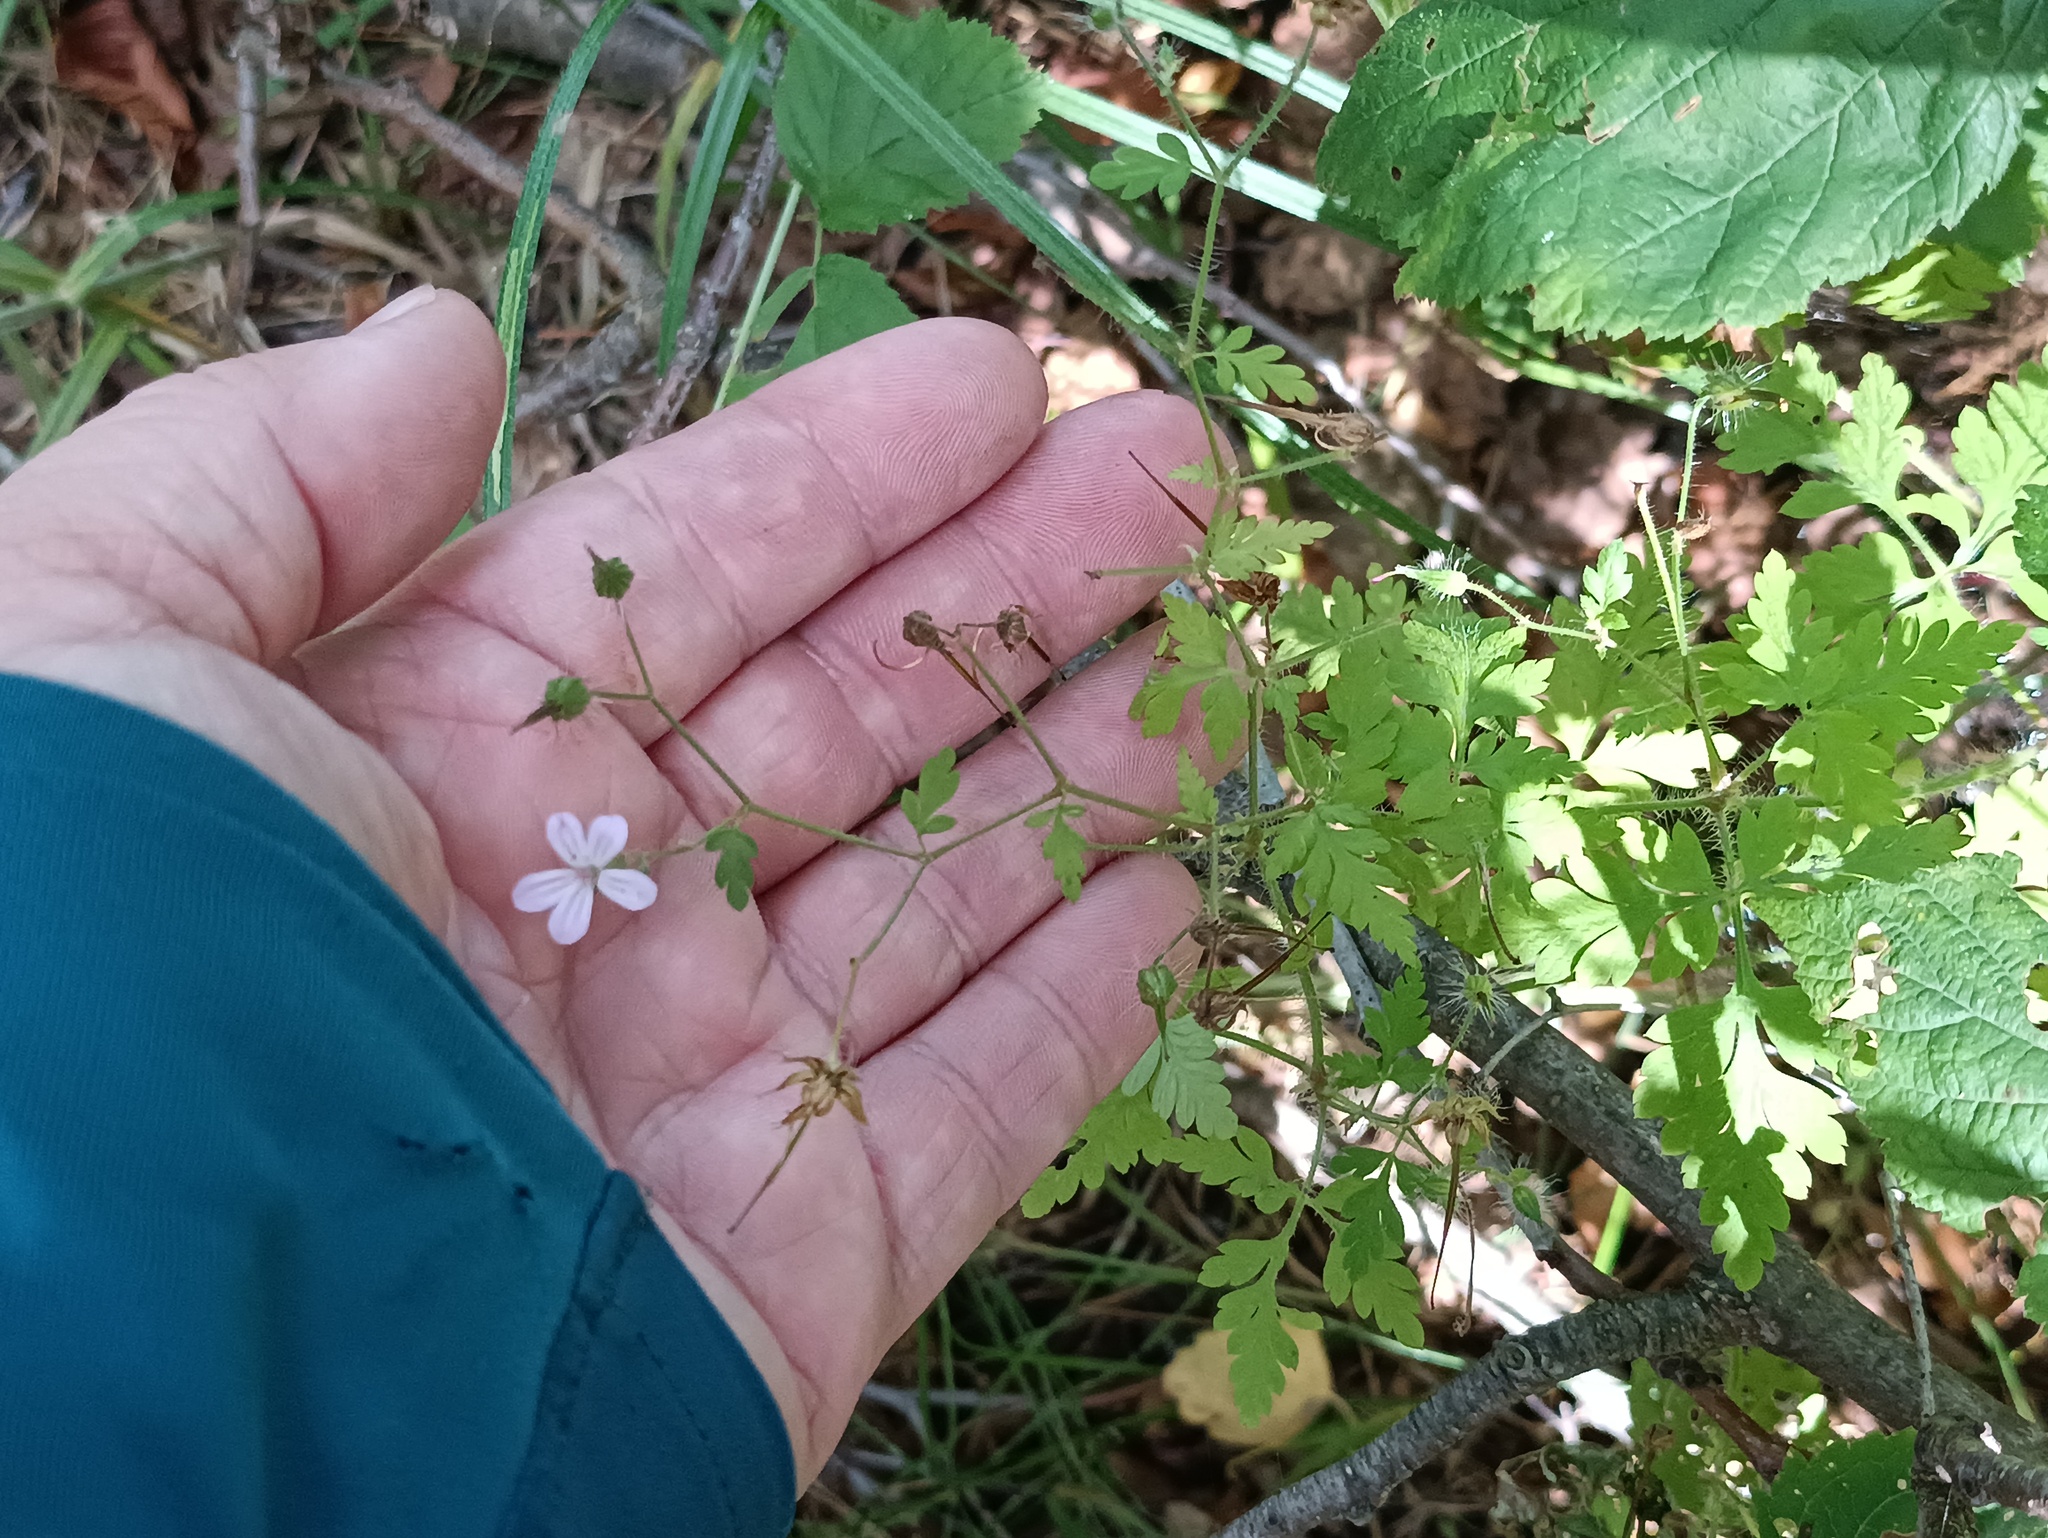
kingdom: Plantae
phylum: Tracheophyta
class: Magnoliopsida
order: Geraniales
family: Geraniaceae
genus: Geranium
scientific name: Geranium robertianum
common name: Herb-robert
